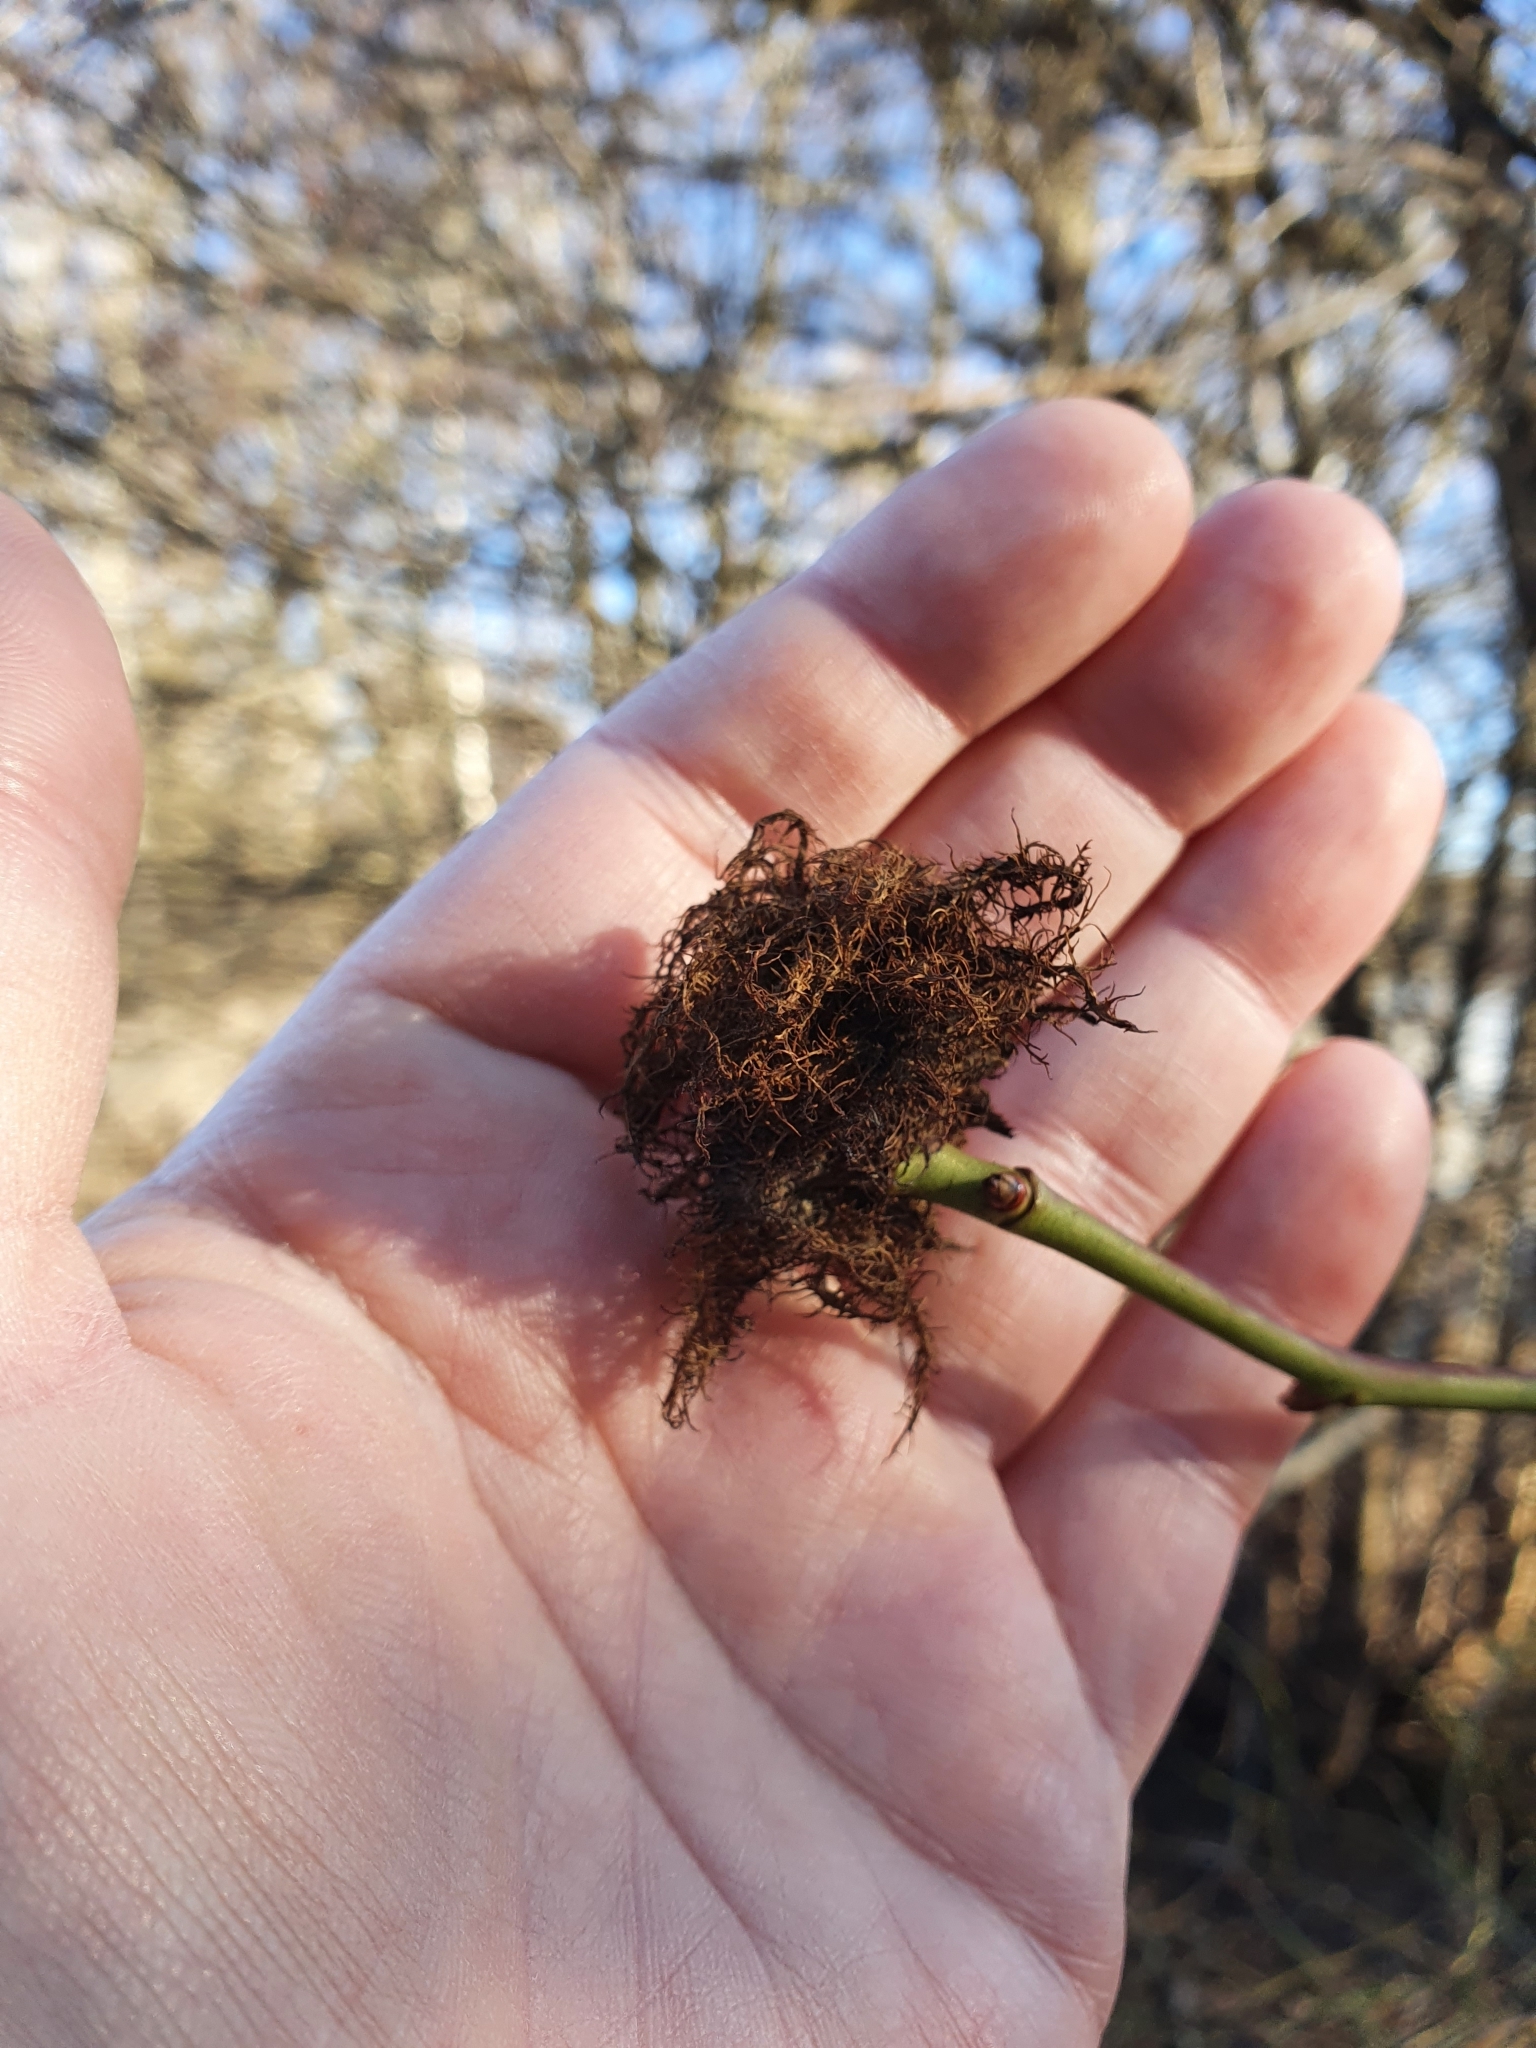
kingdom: Animalia
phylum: Arthropoda
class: Insecta
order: Hymenoptera
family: Cynipidae
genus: Diplolepis
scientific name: Diplolepis rosae
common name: Bedeguar gall
